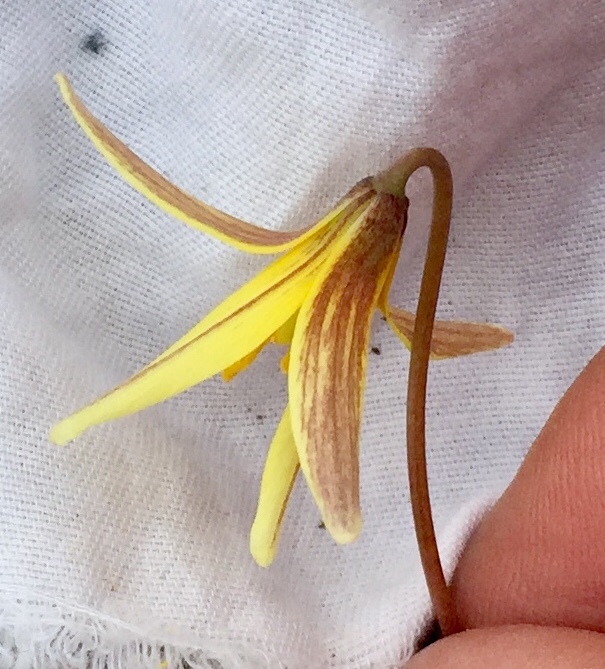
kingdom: Plantae
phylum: Tracheophyta
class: Liliopsida
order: Liliales
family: Liliaceae
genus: Erythronium
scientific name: Erythronium umbilicatum
